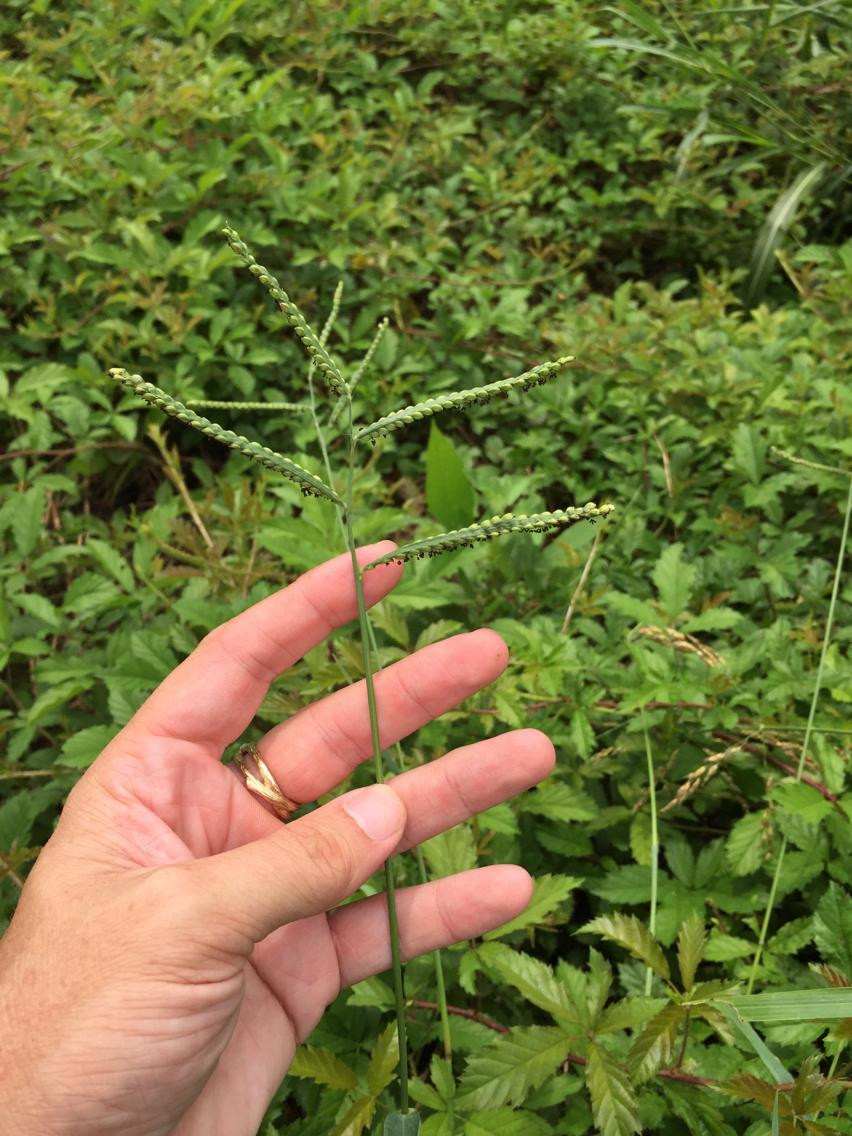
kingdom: Plantae
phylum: Tracheophyta
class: Liliopsida
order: Poales
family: Poaceae
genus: Paspalum
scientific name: Paspalum dilatatum
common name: Dallisgrass
